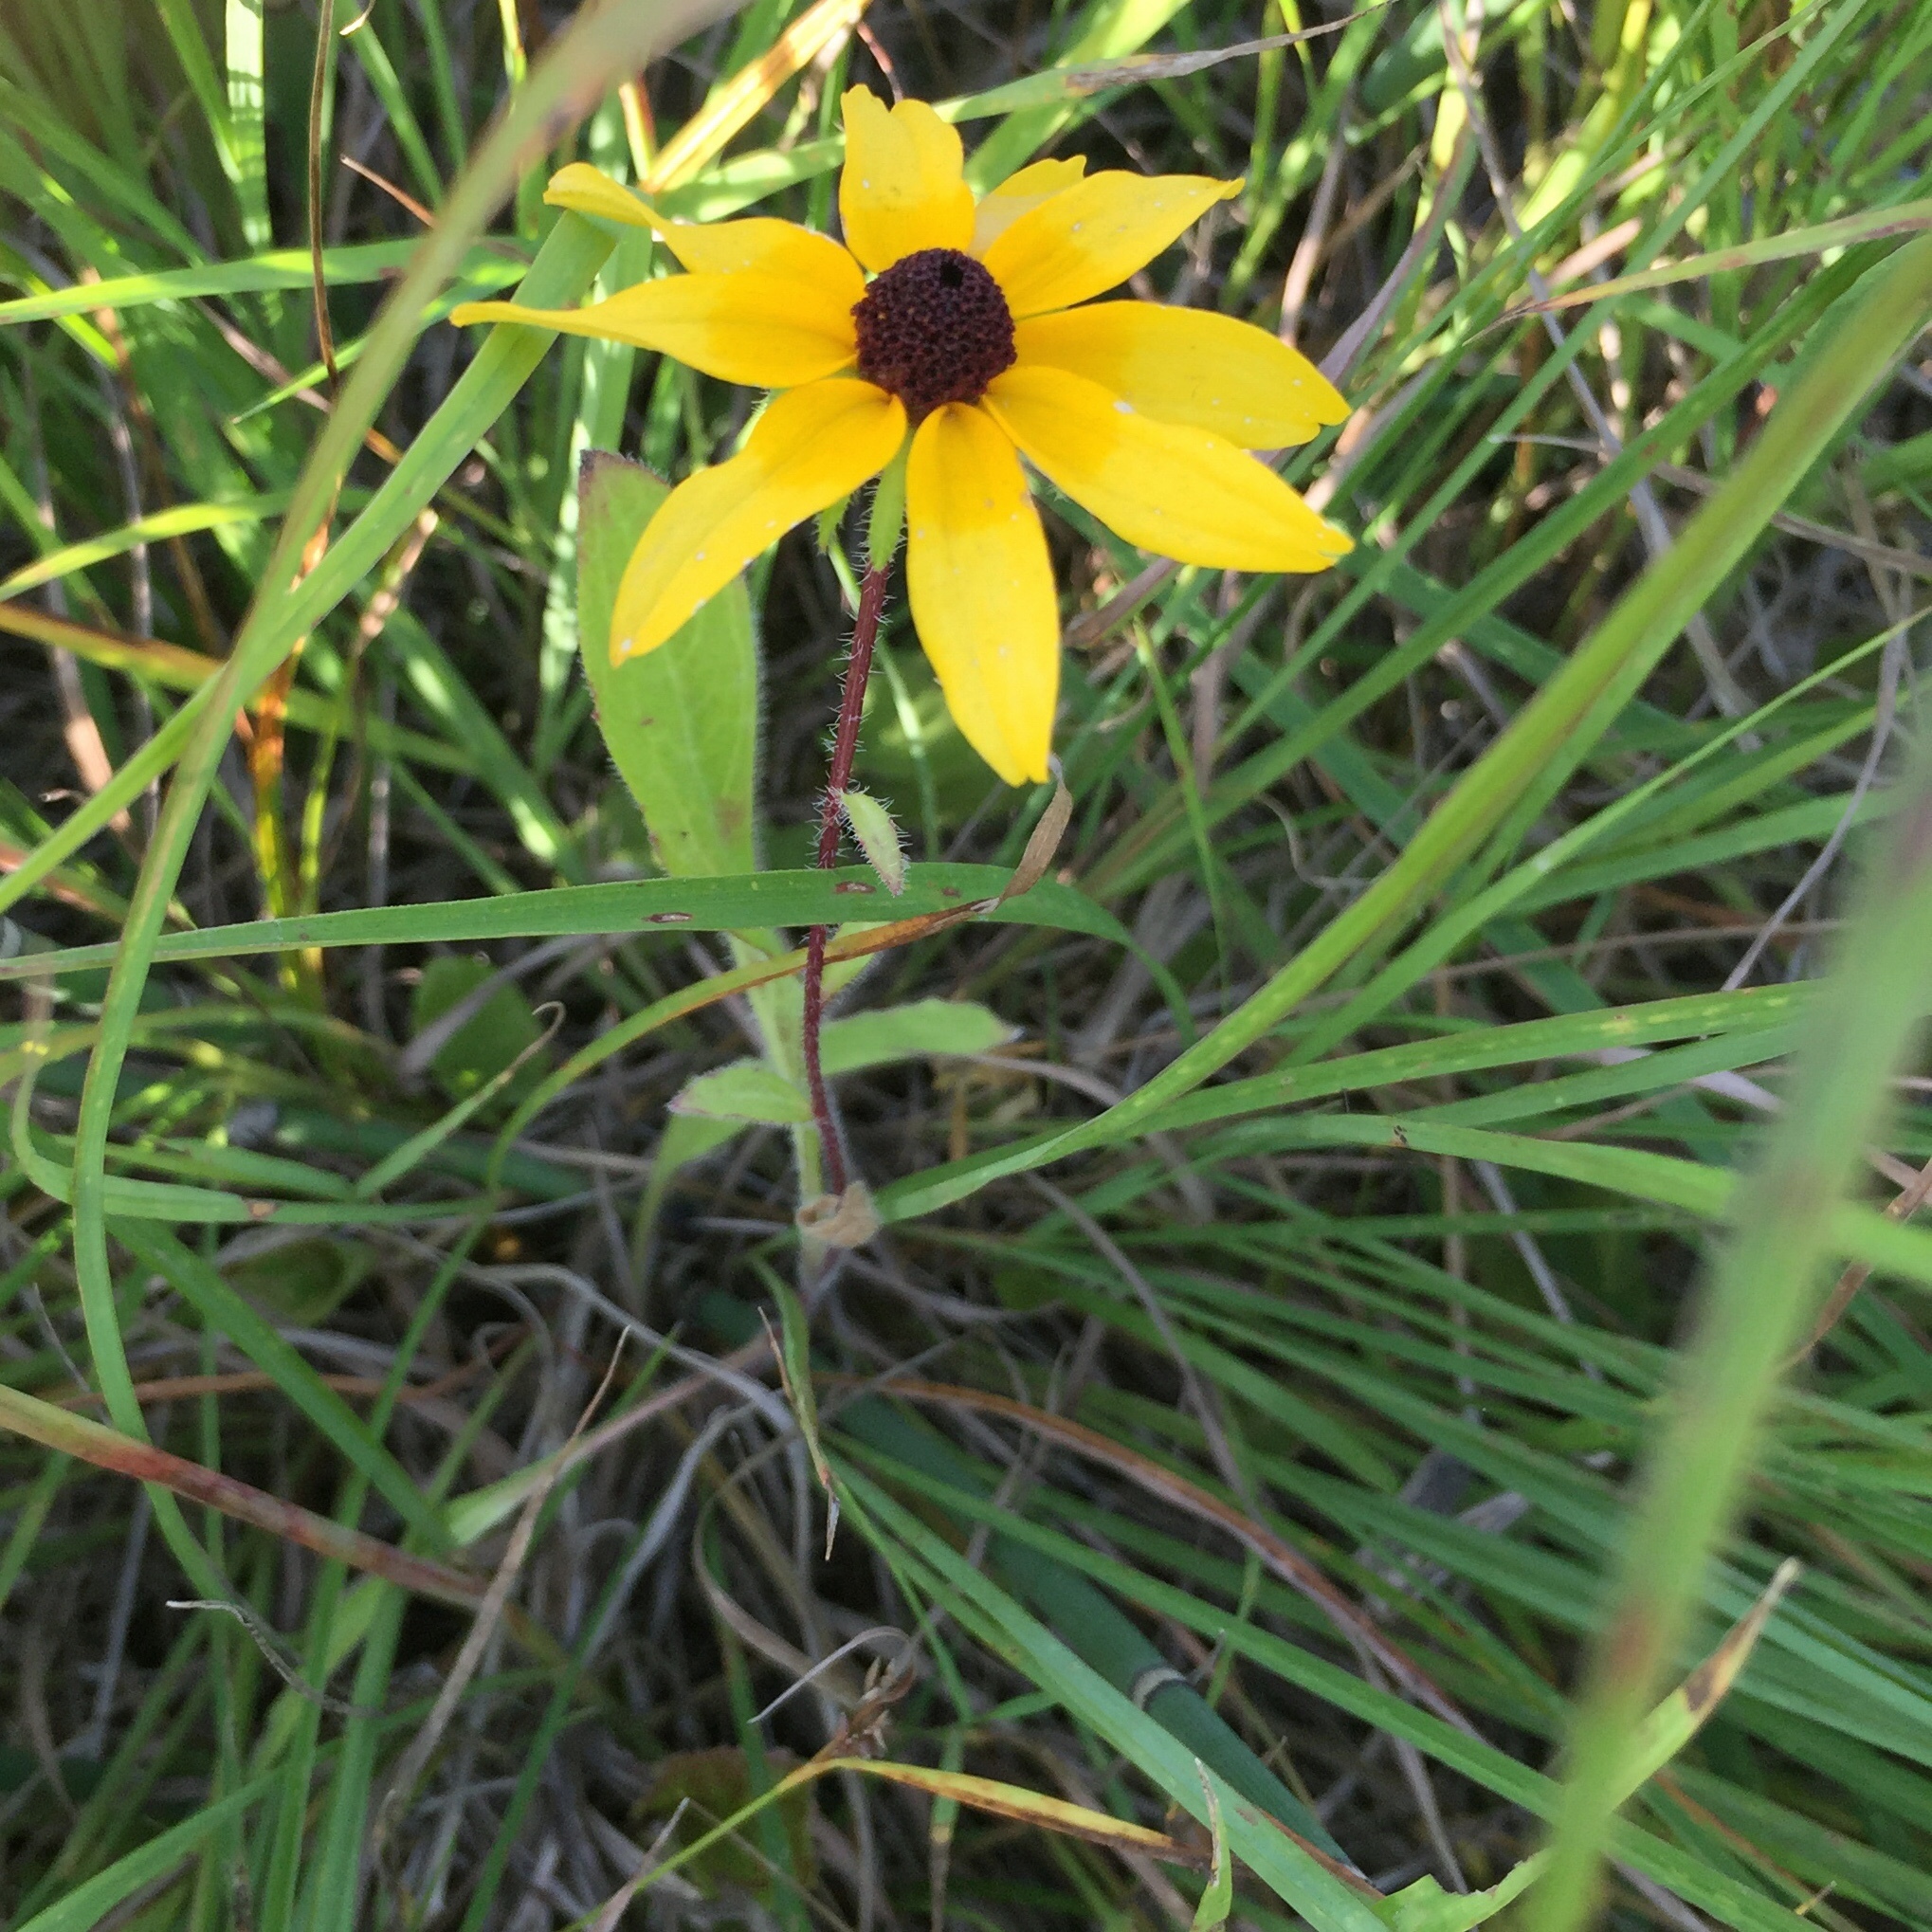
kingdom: Plantae
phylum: Tracheophyta
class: Magnoliopsida
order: Asterales
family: Asteraceae
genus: Rudbeckia
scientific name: Rudbeckia hirta
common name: Black-eyed-susan
